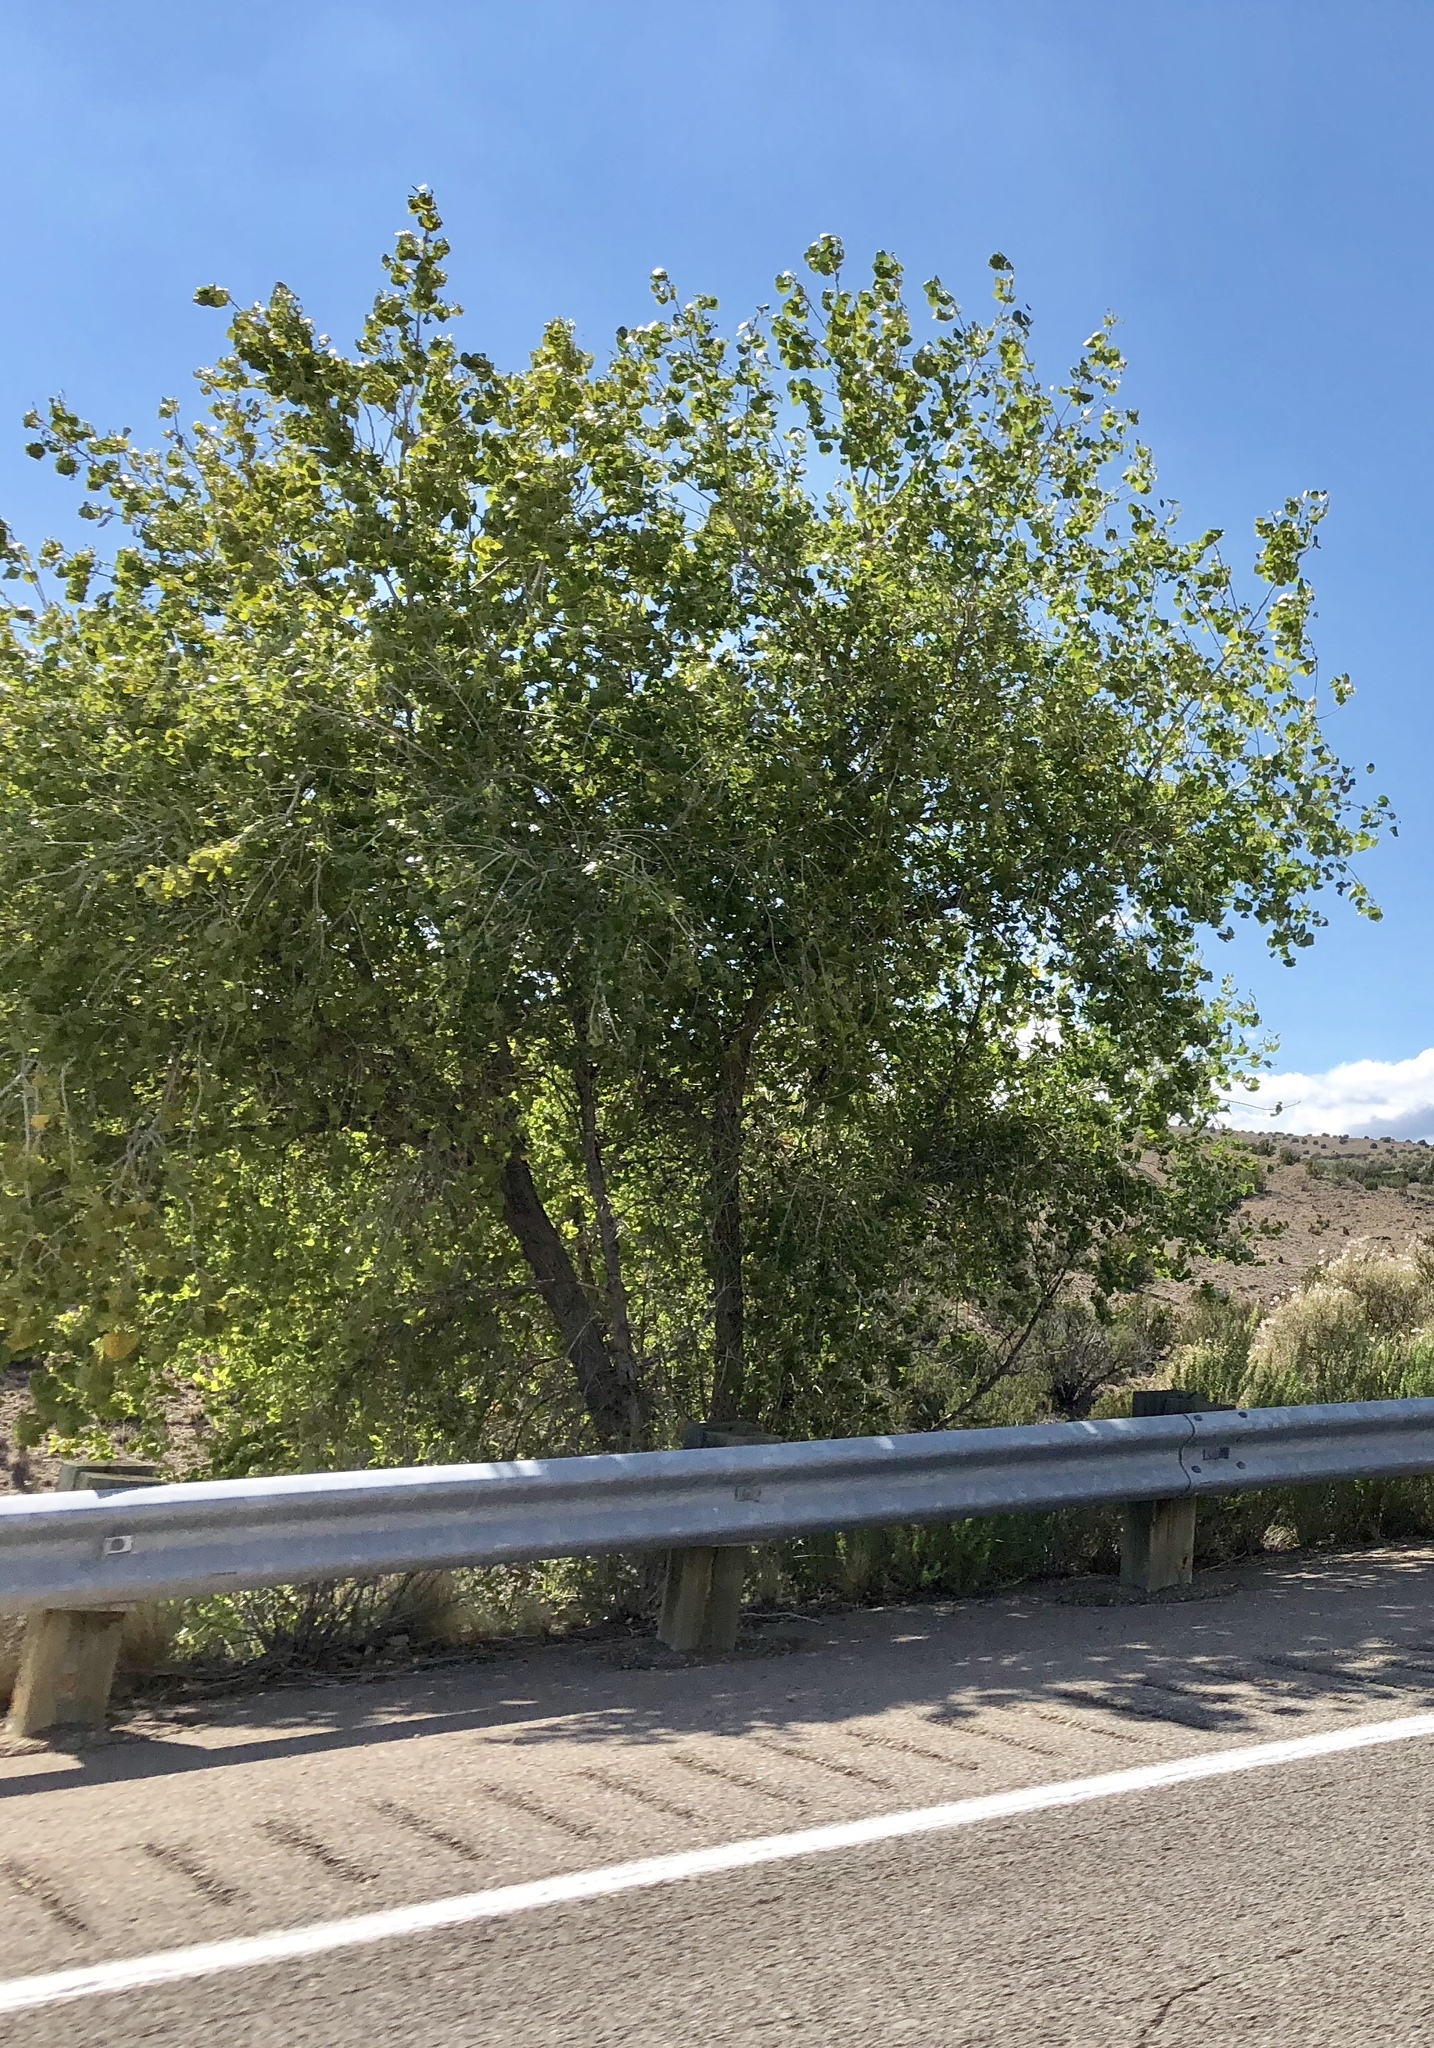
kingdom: Plantae
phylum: Tracheophyta
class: Magnoliopsida
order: Malpighiales
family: Salicaceae
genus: Populus
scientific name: Populus fremontii
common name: Fremont's cottonwood
